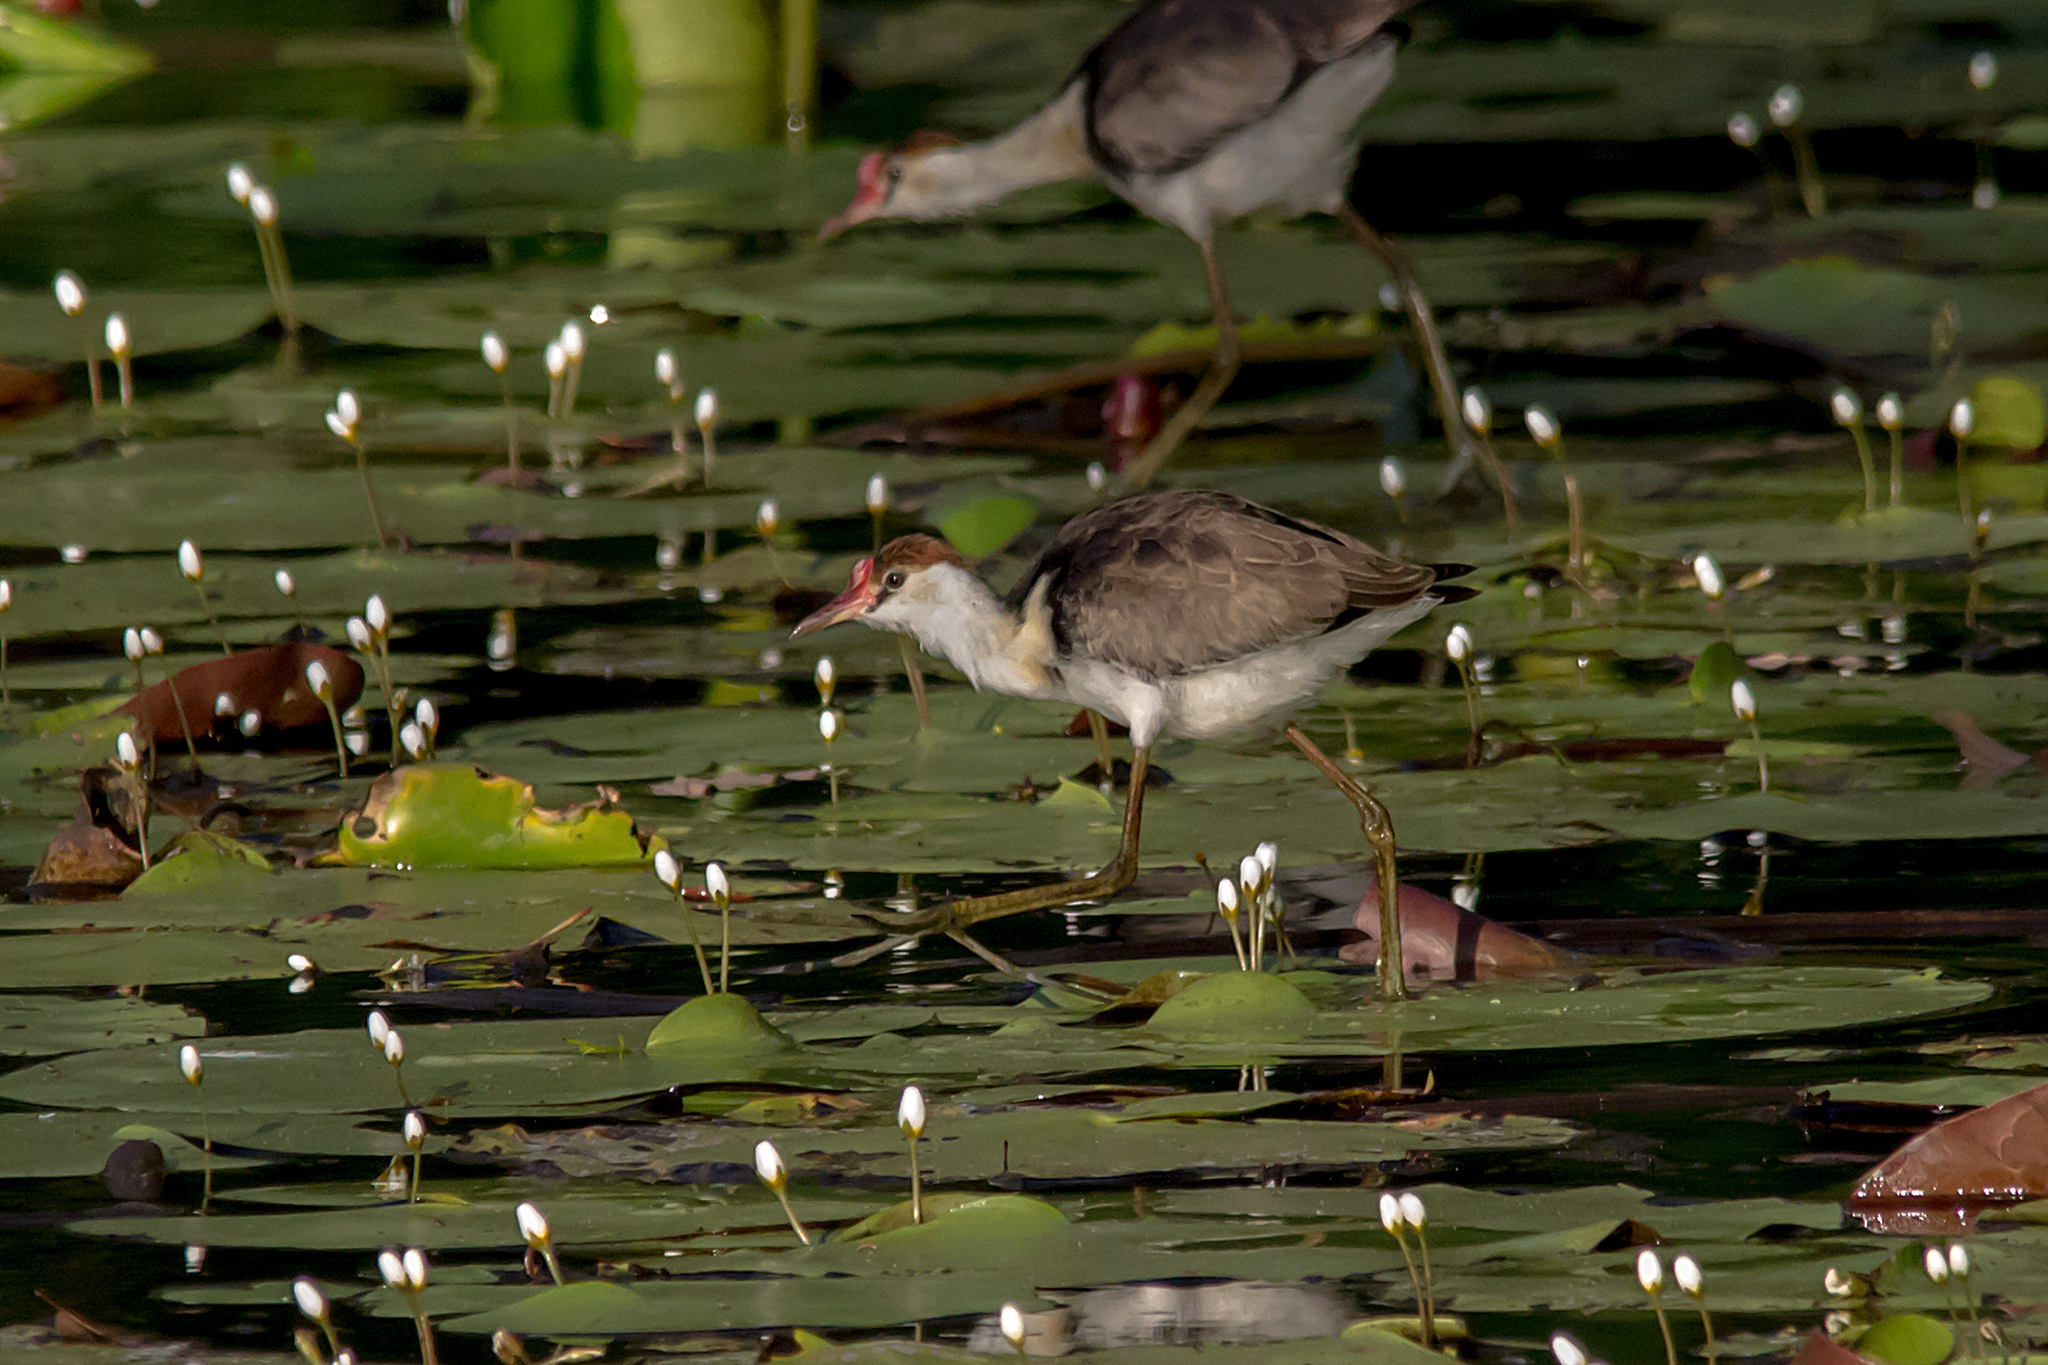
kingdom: Animalia
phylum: Chordata
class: Aves
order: Charadriiformes
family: Jacanidae
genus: Irediparra
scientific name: Irediparra gallinacea
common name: Comb-crested jacana
